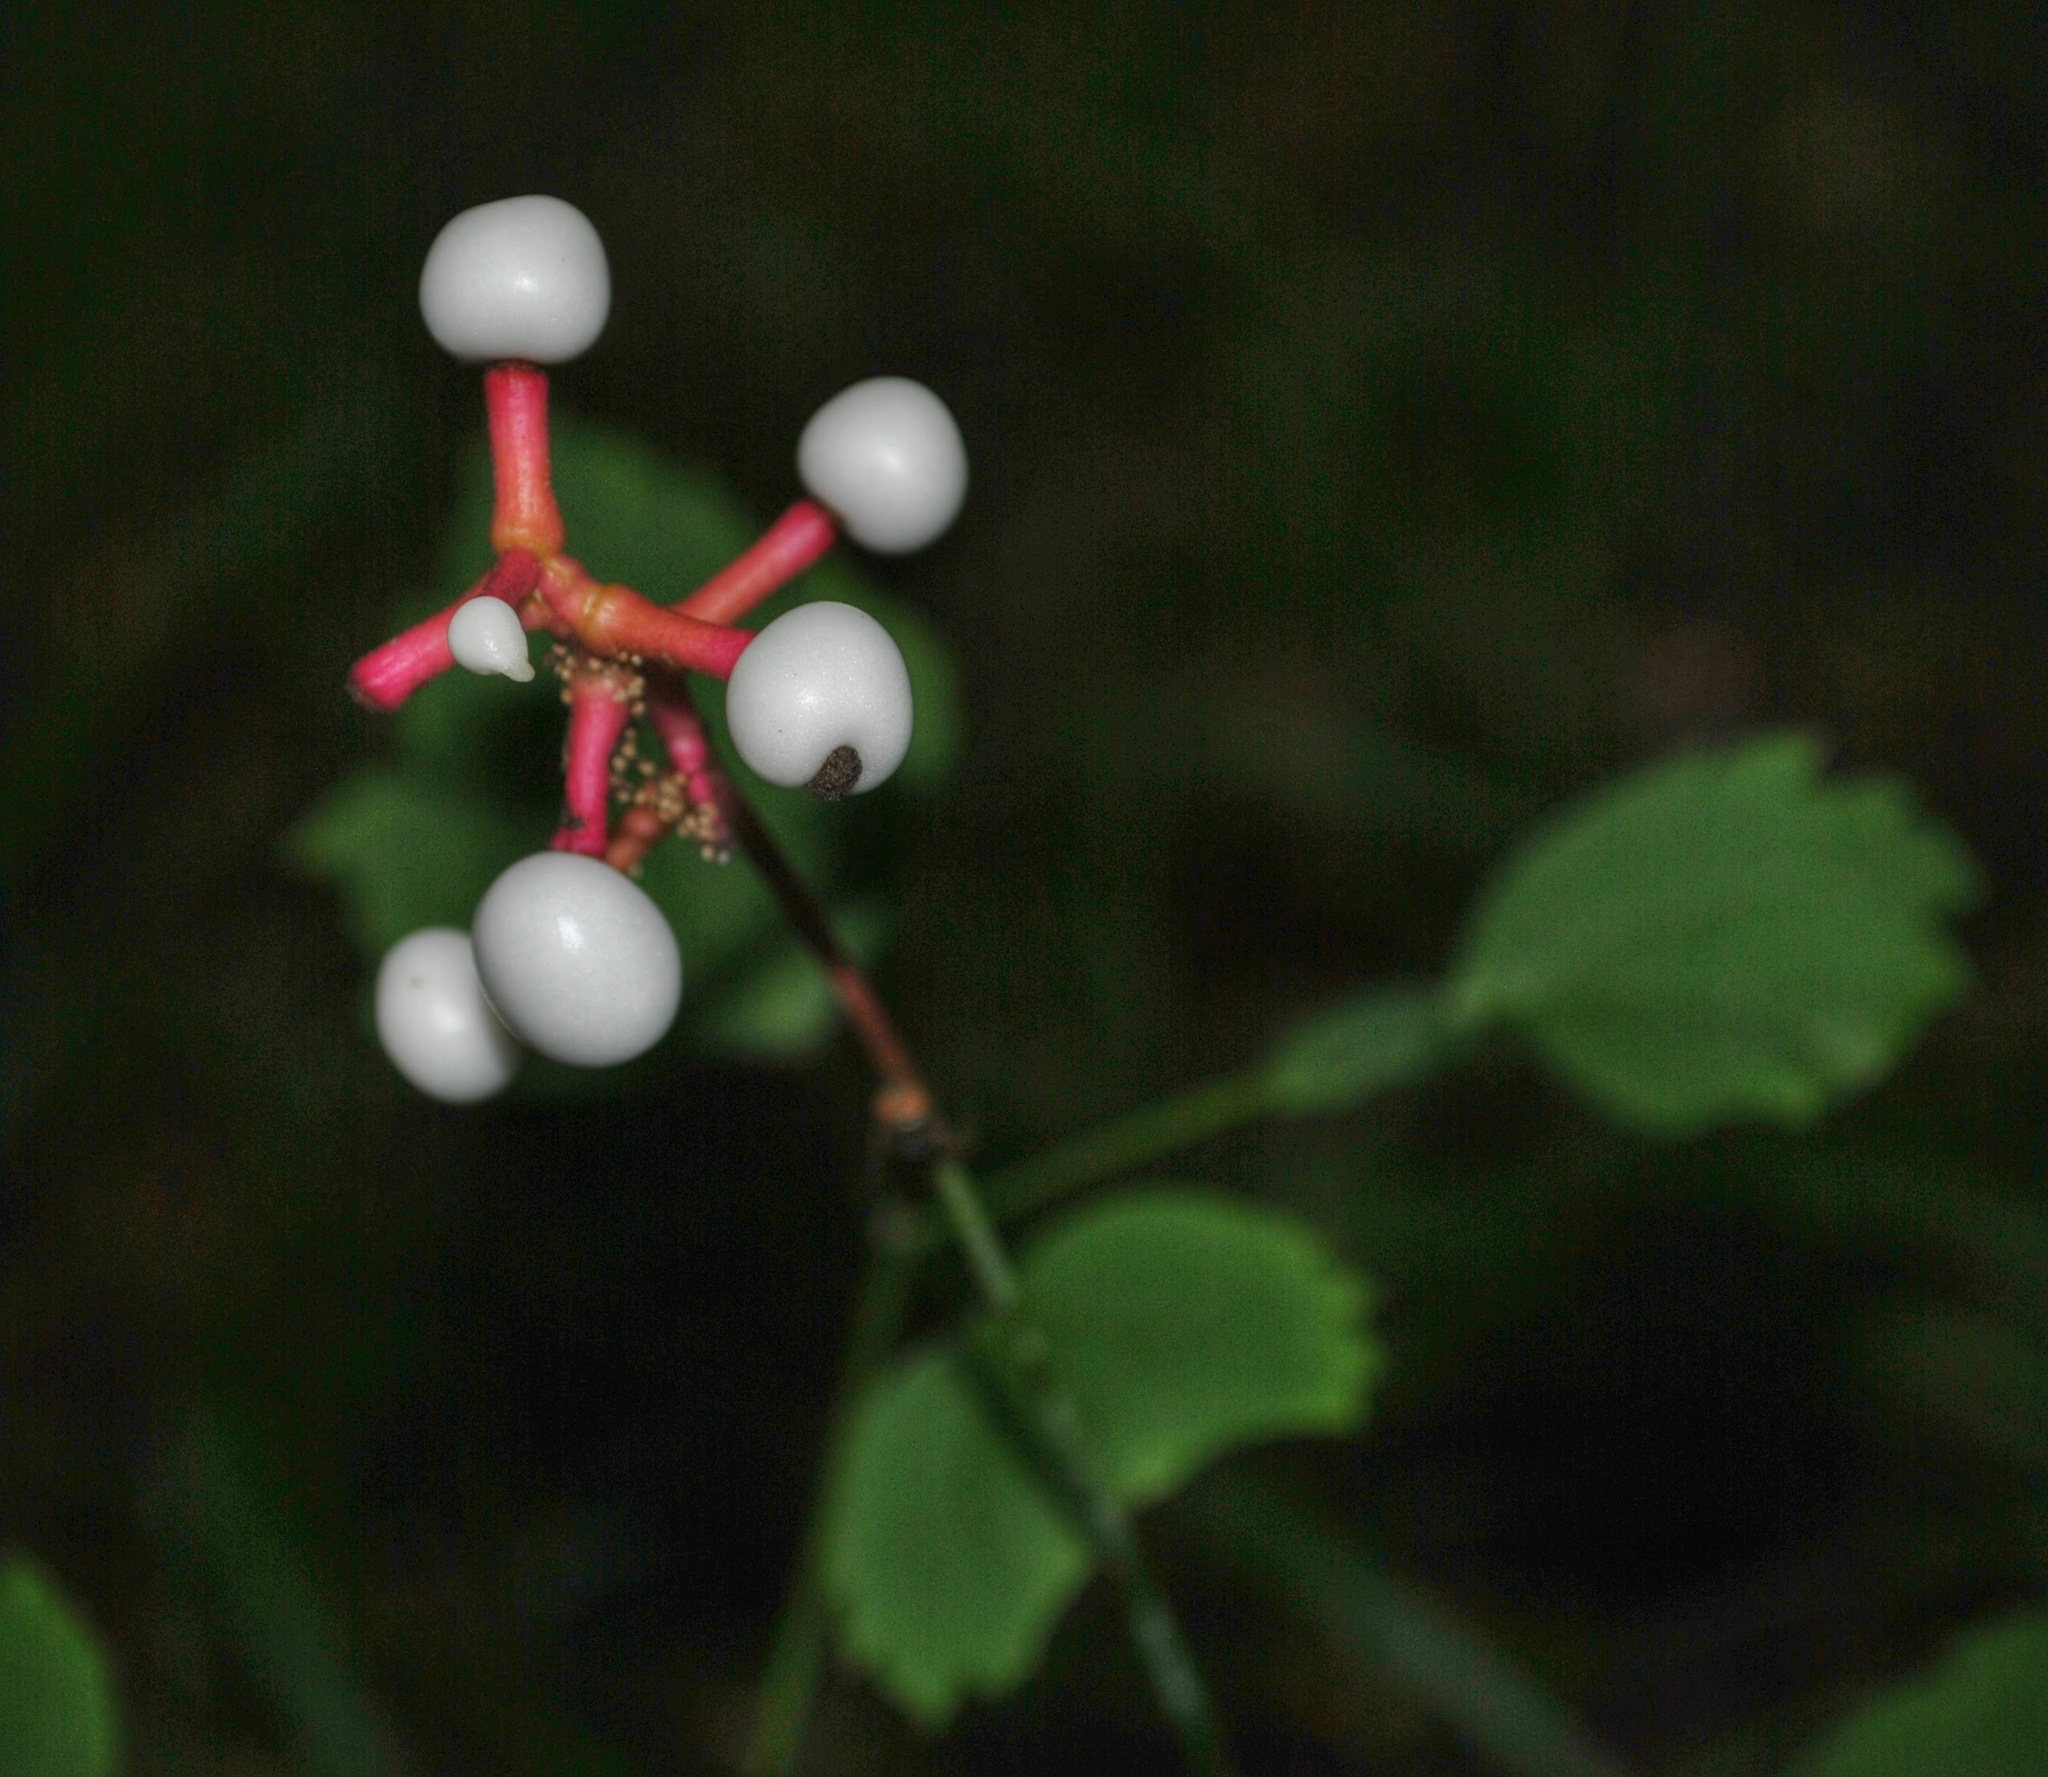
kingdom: Plantae
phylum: Tracheophyta
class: Magnoliopsida
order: Ranunculales
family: Ranunculaceae
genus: Actaea
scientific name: Actaea pachypoda
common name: Doll's-eyes
